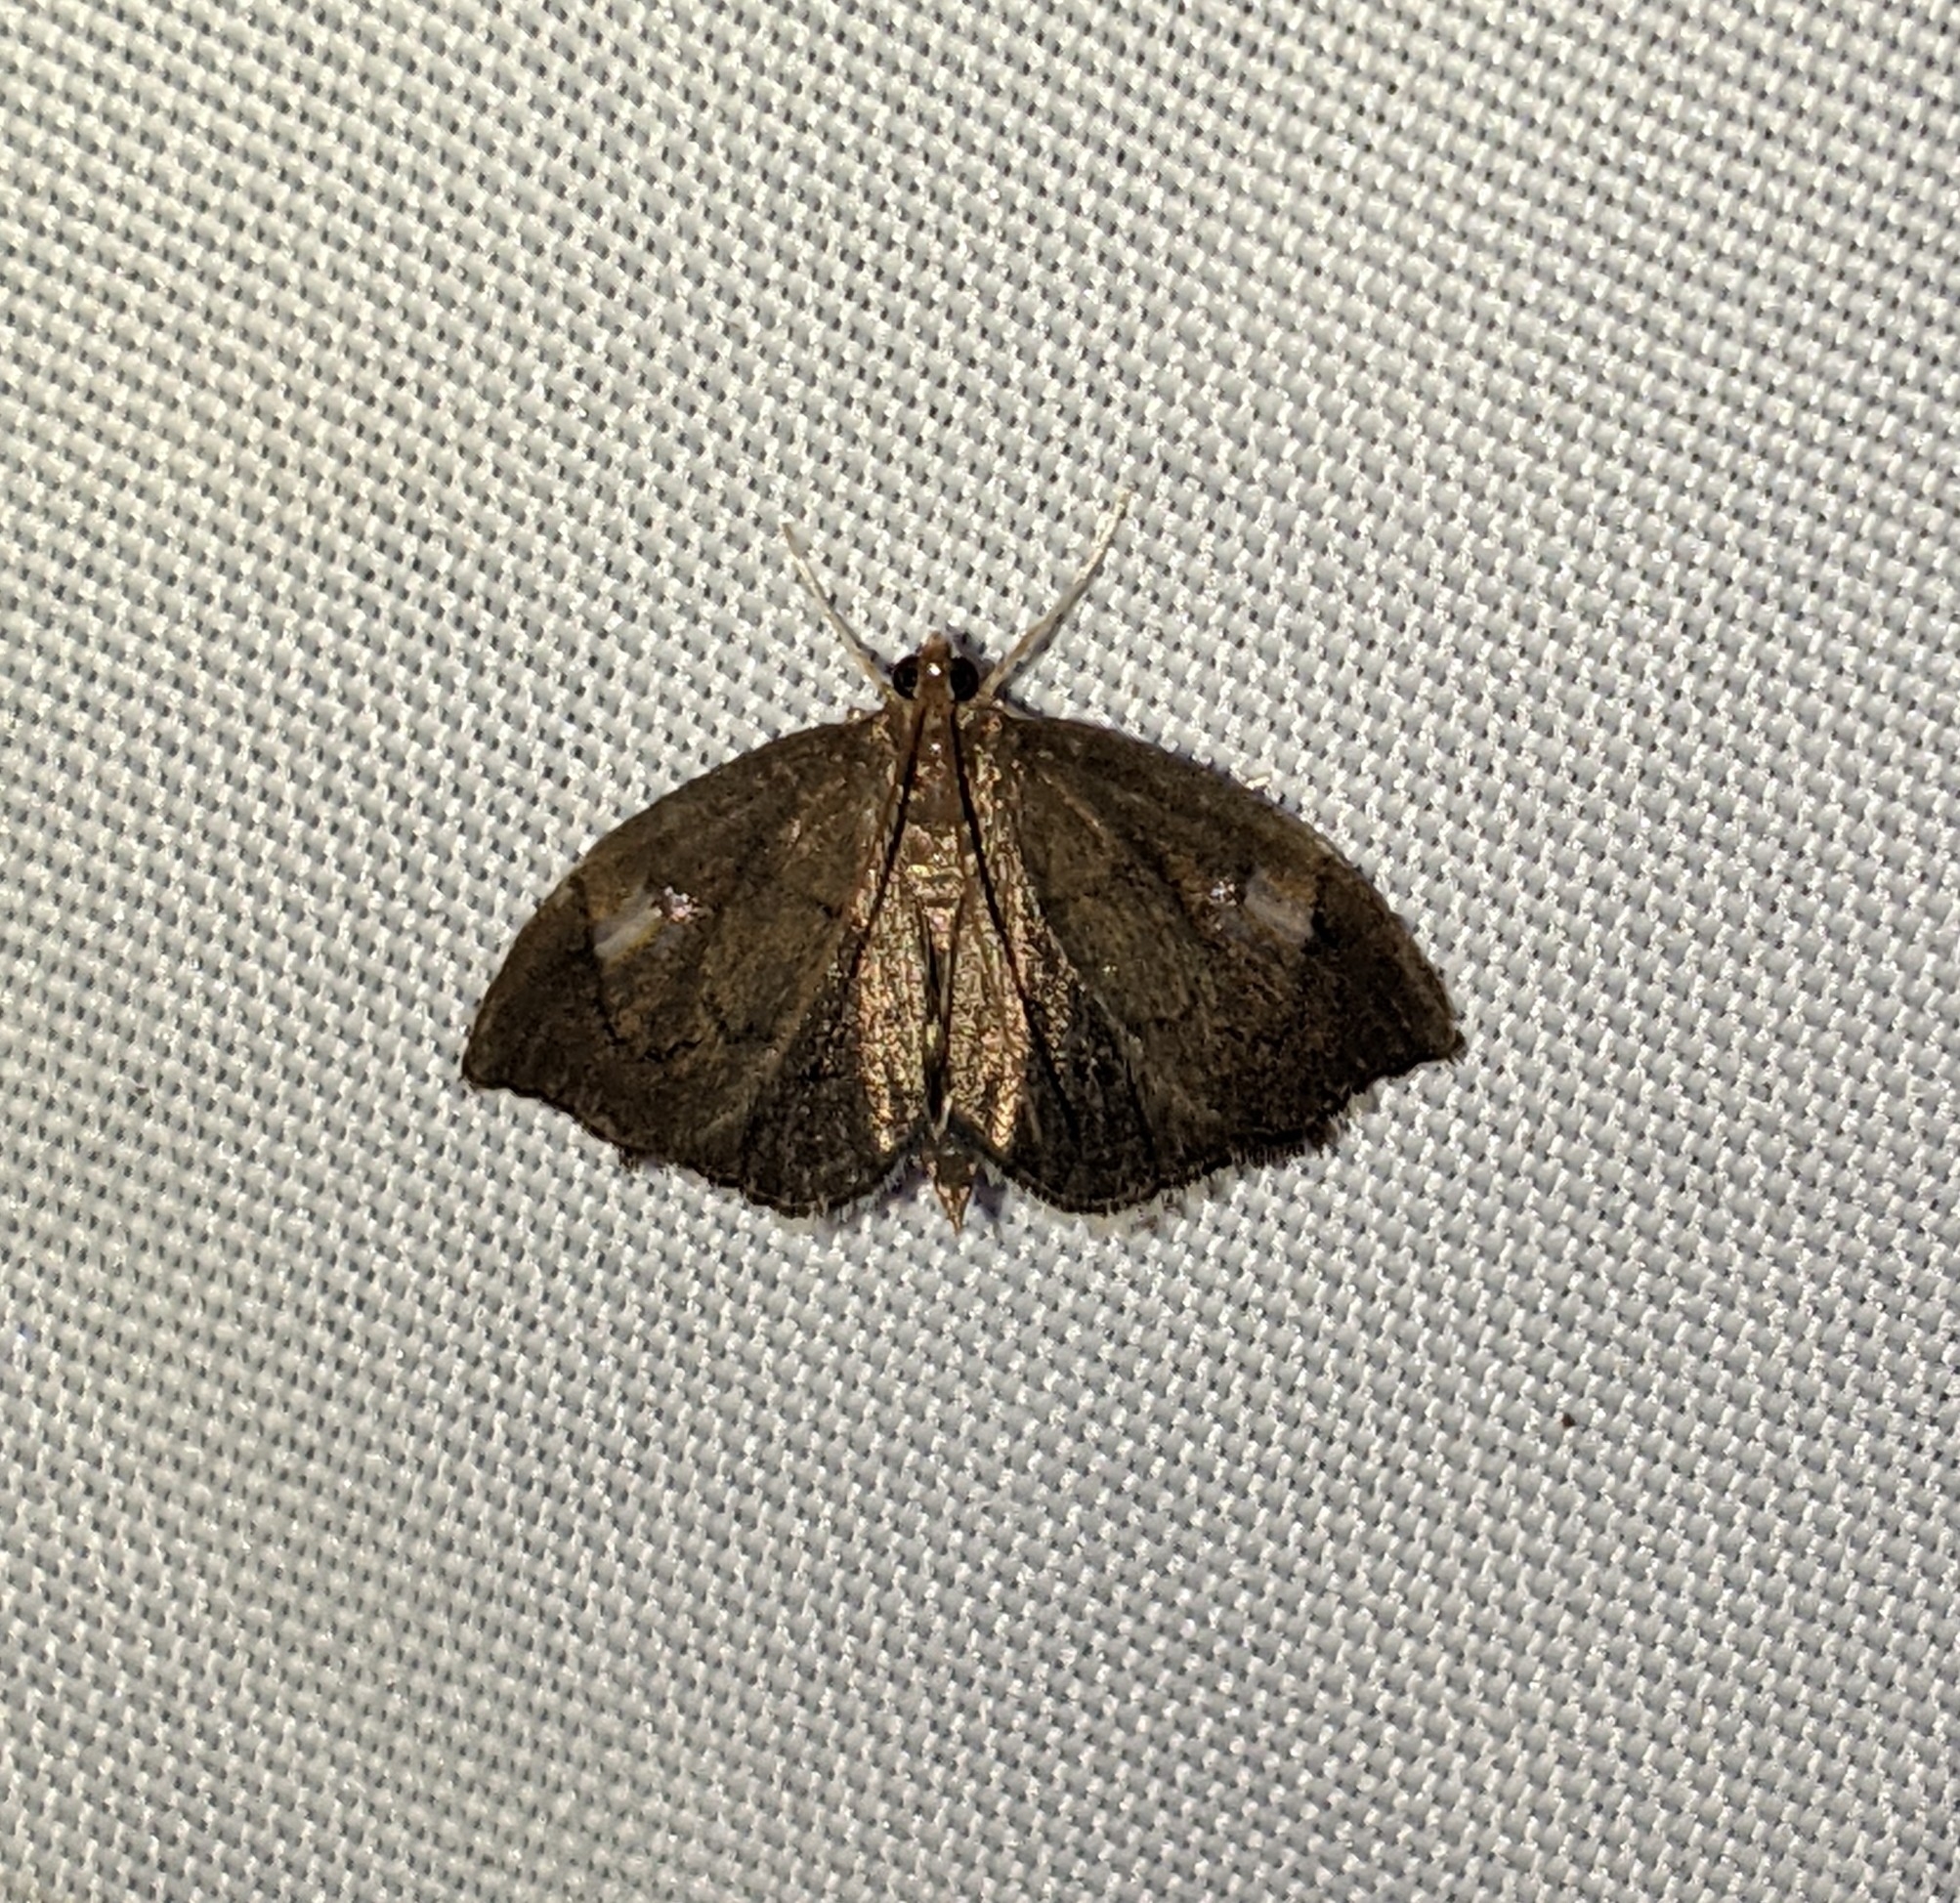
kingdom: Animalia
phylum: Arthropoda
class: Insecta
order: Lepidoptera
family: Crambidae
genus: Perispasta
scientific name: Perispasta caeculalis
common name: Titian peale's moth
